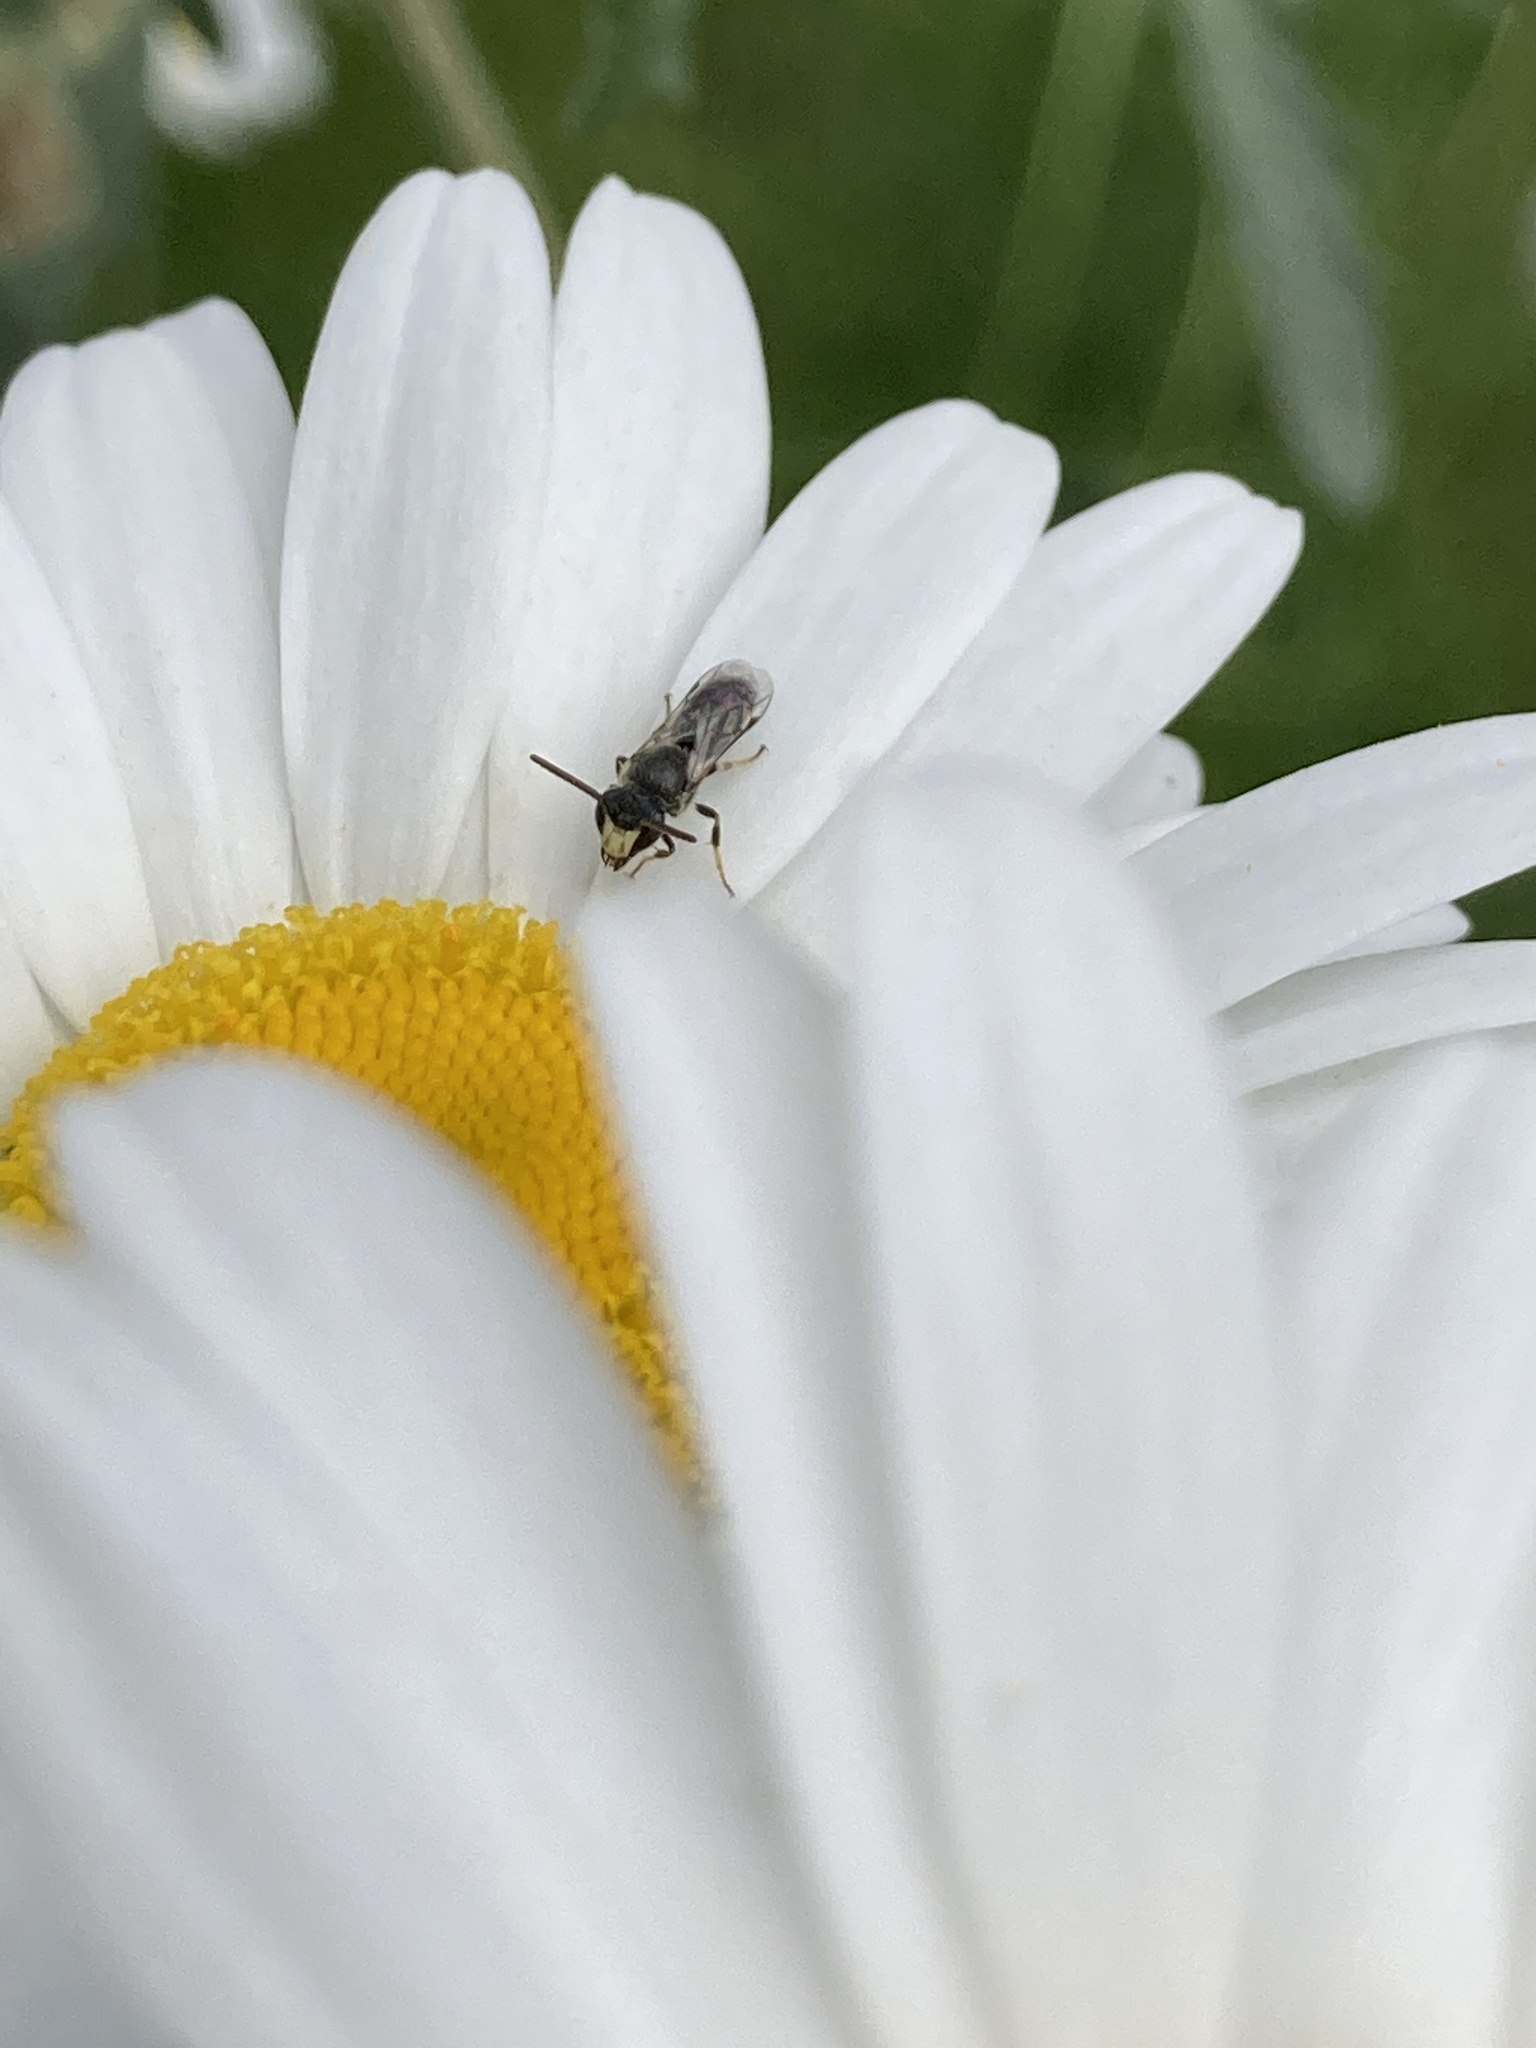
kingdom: Animalia
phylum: Arthropoda
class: Insecta
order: Hymenoptera
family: Colletidae
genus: Hylaeus
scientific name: Hylaeus hyalinatus
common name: Hyaline masked bee
